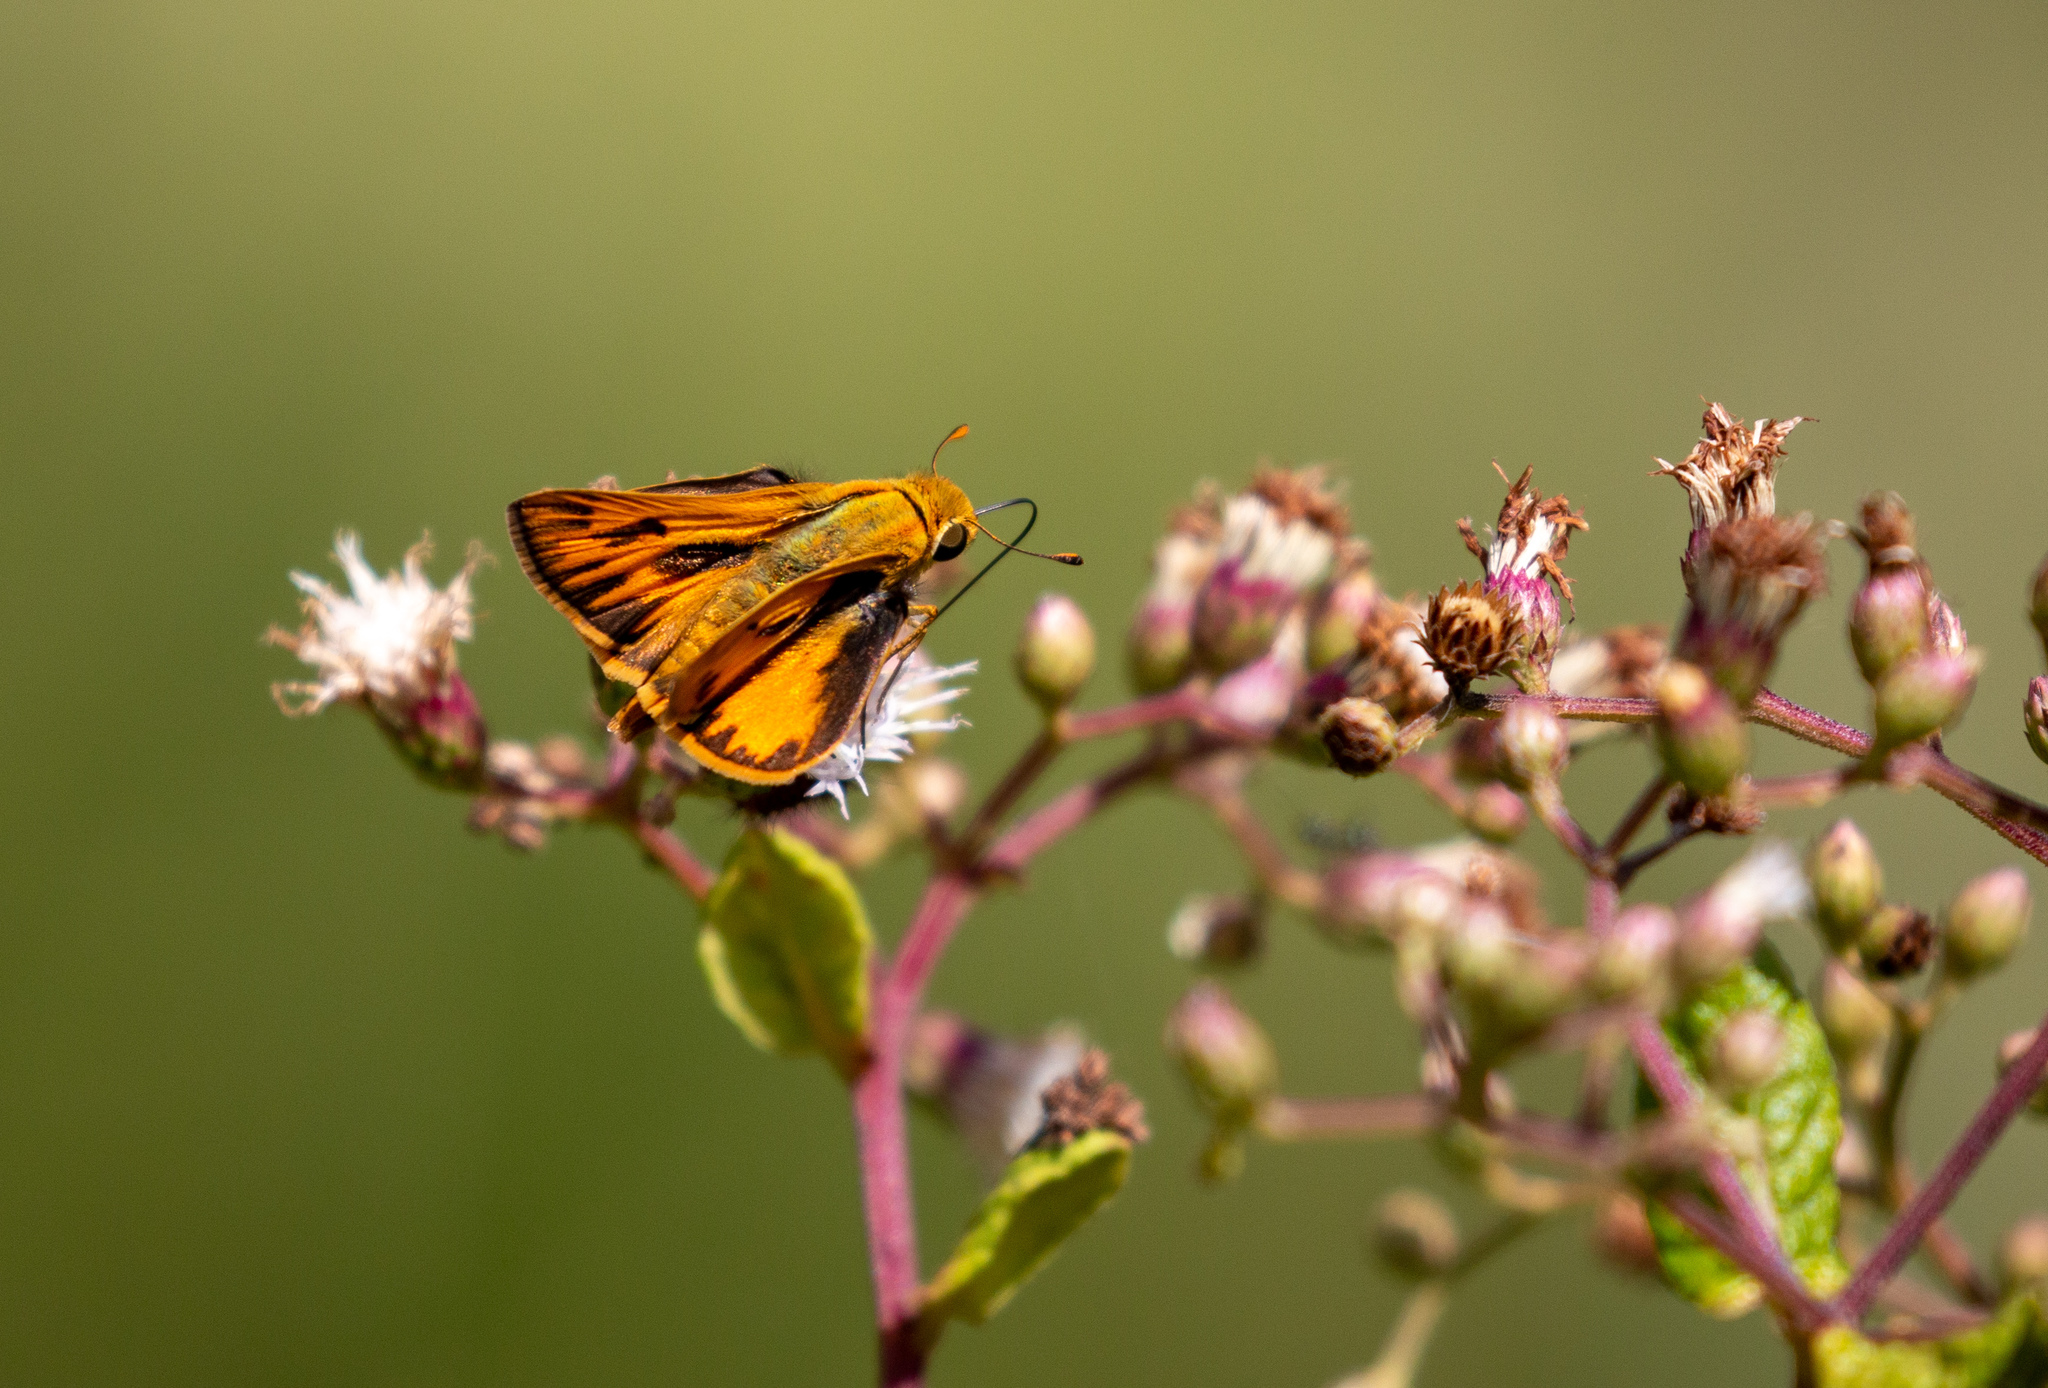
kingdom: Animalia
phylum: Arthropoda
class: Insecta
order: Lepidoptera
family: Hesperiidae
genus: Hylephila
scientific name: Hylephila phyleus
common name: Fiery skipper
